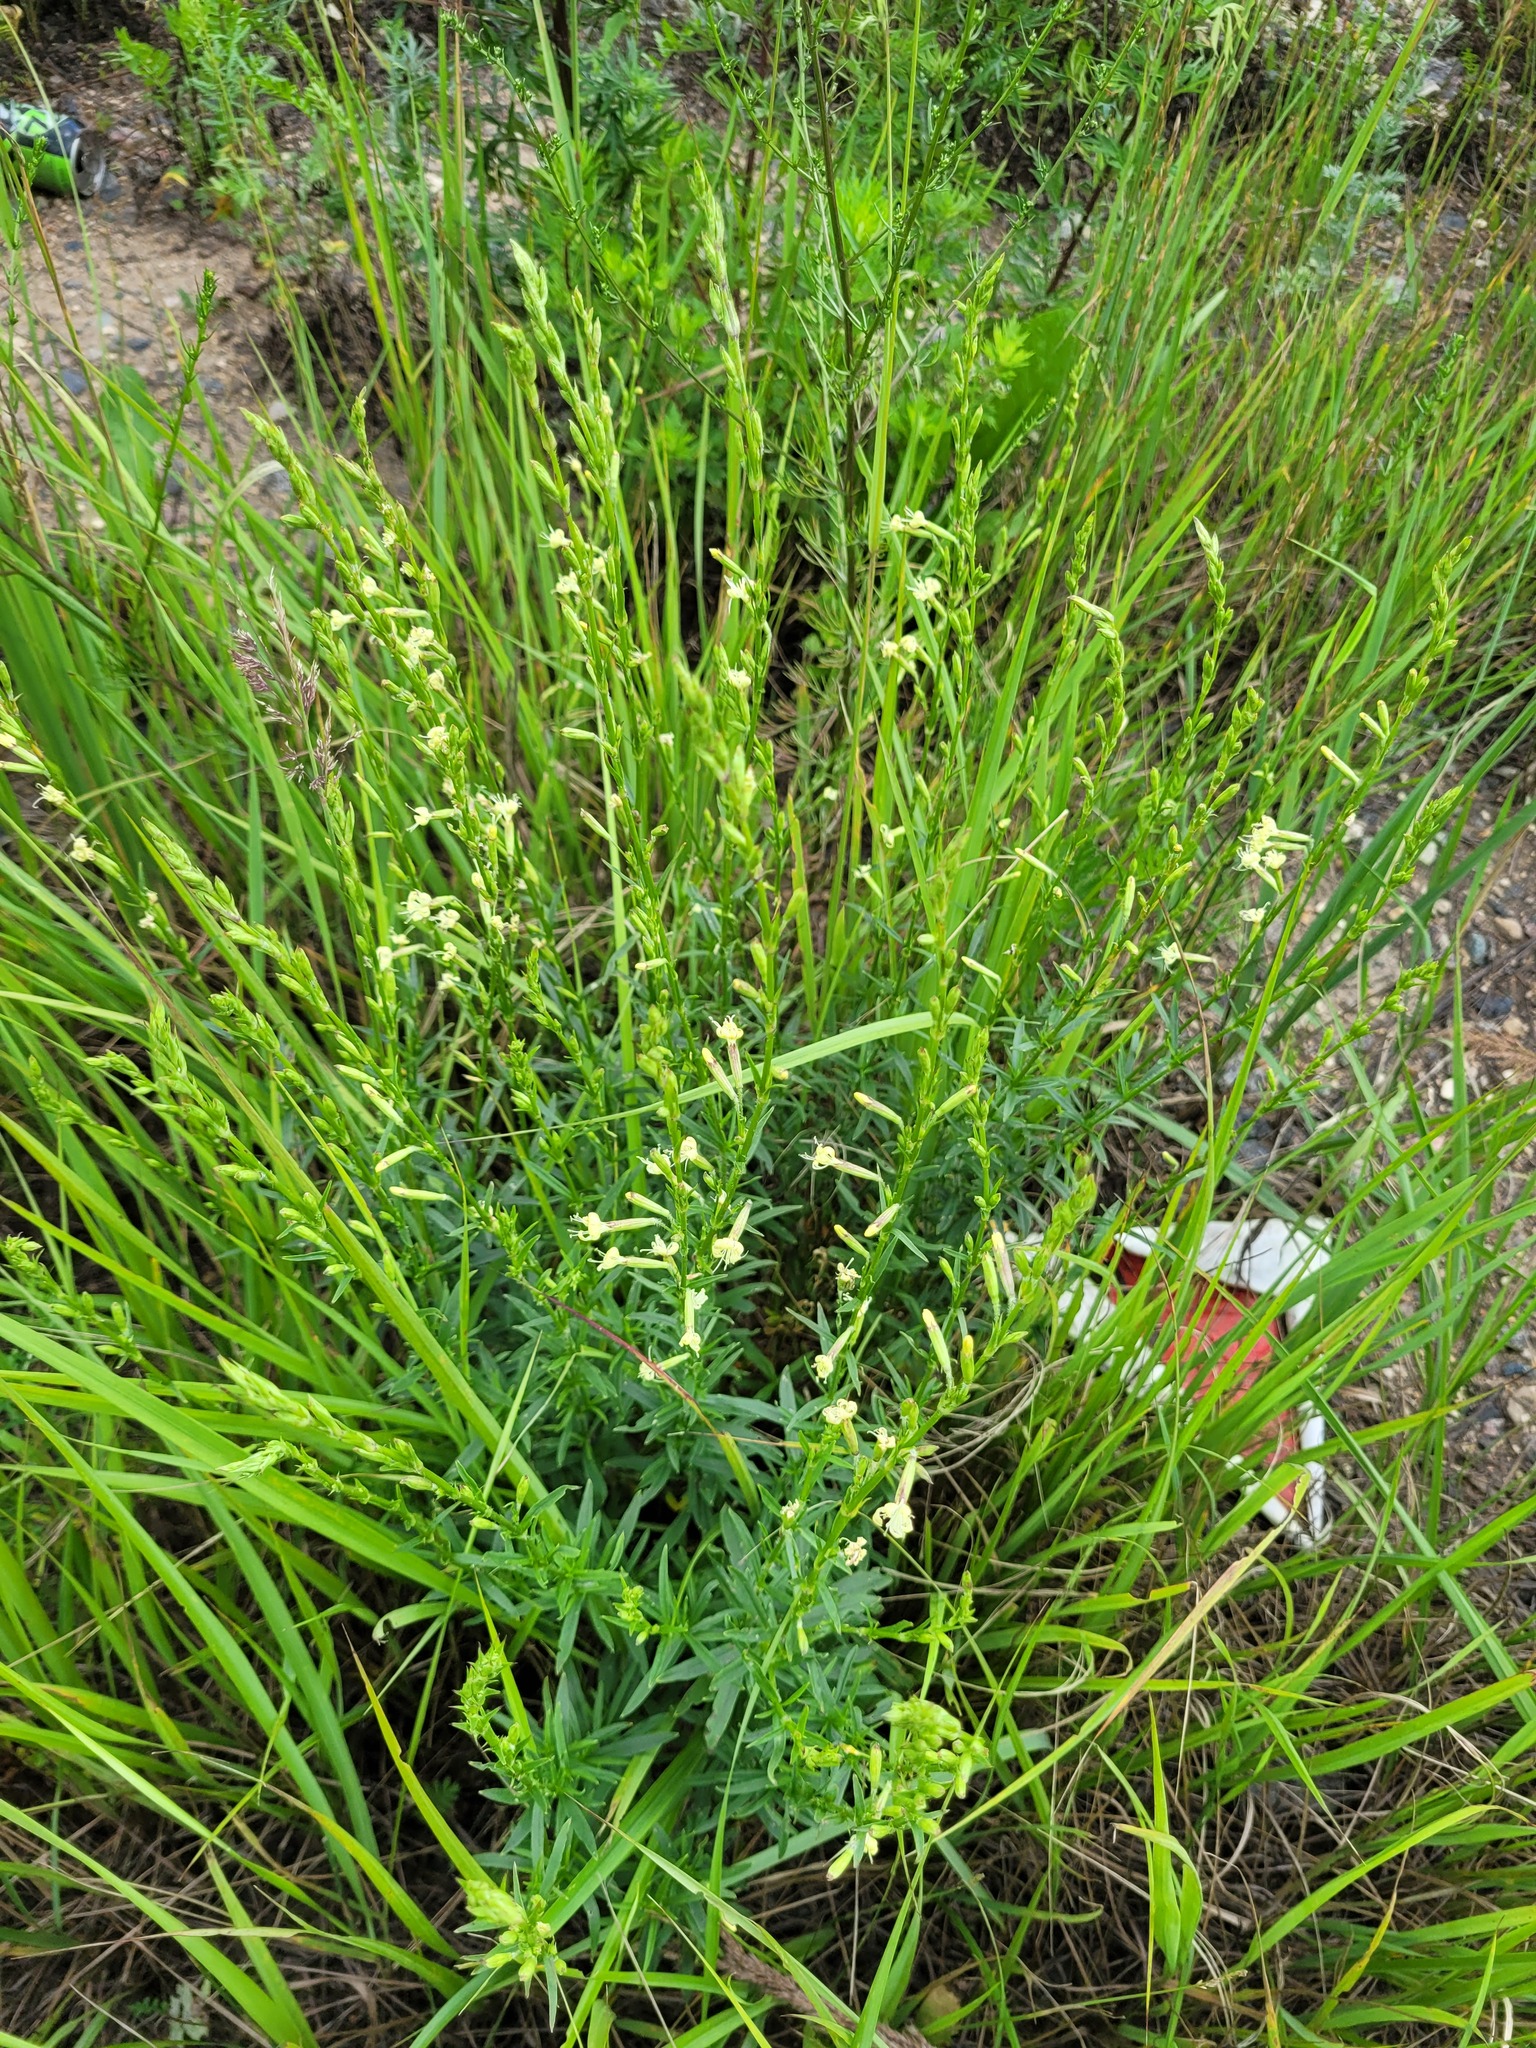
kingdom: Plantae
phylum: Tracheophyta
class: Magnoliopsida
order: Caryophyllales
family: Caryophyllaceae
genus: Silene
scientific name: Silene tatarica
